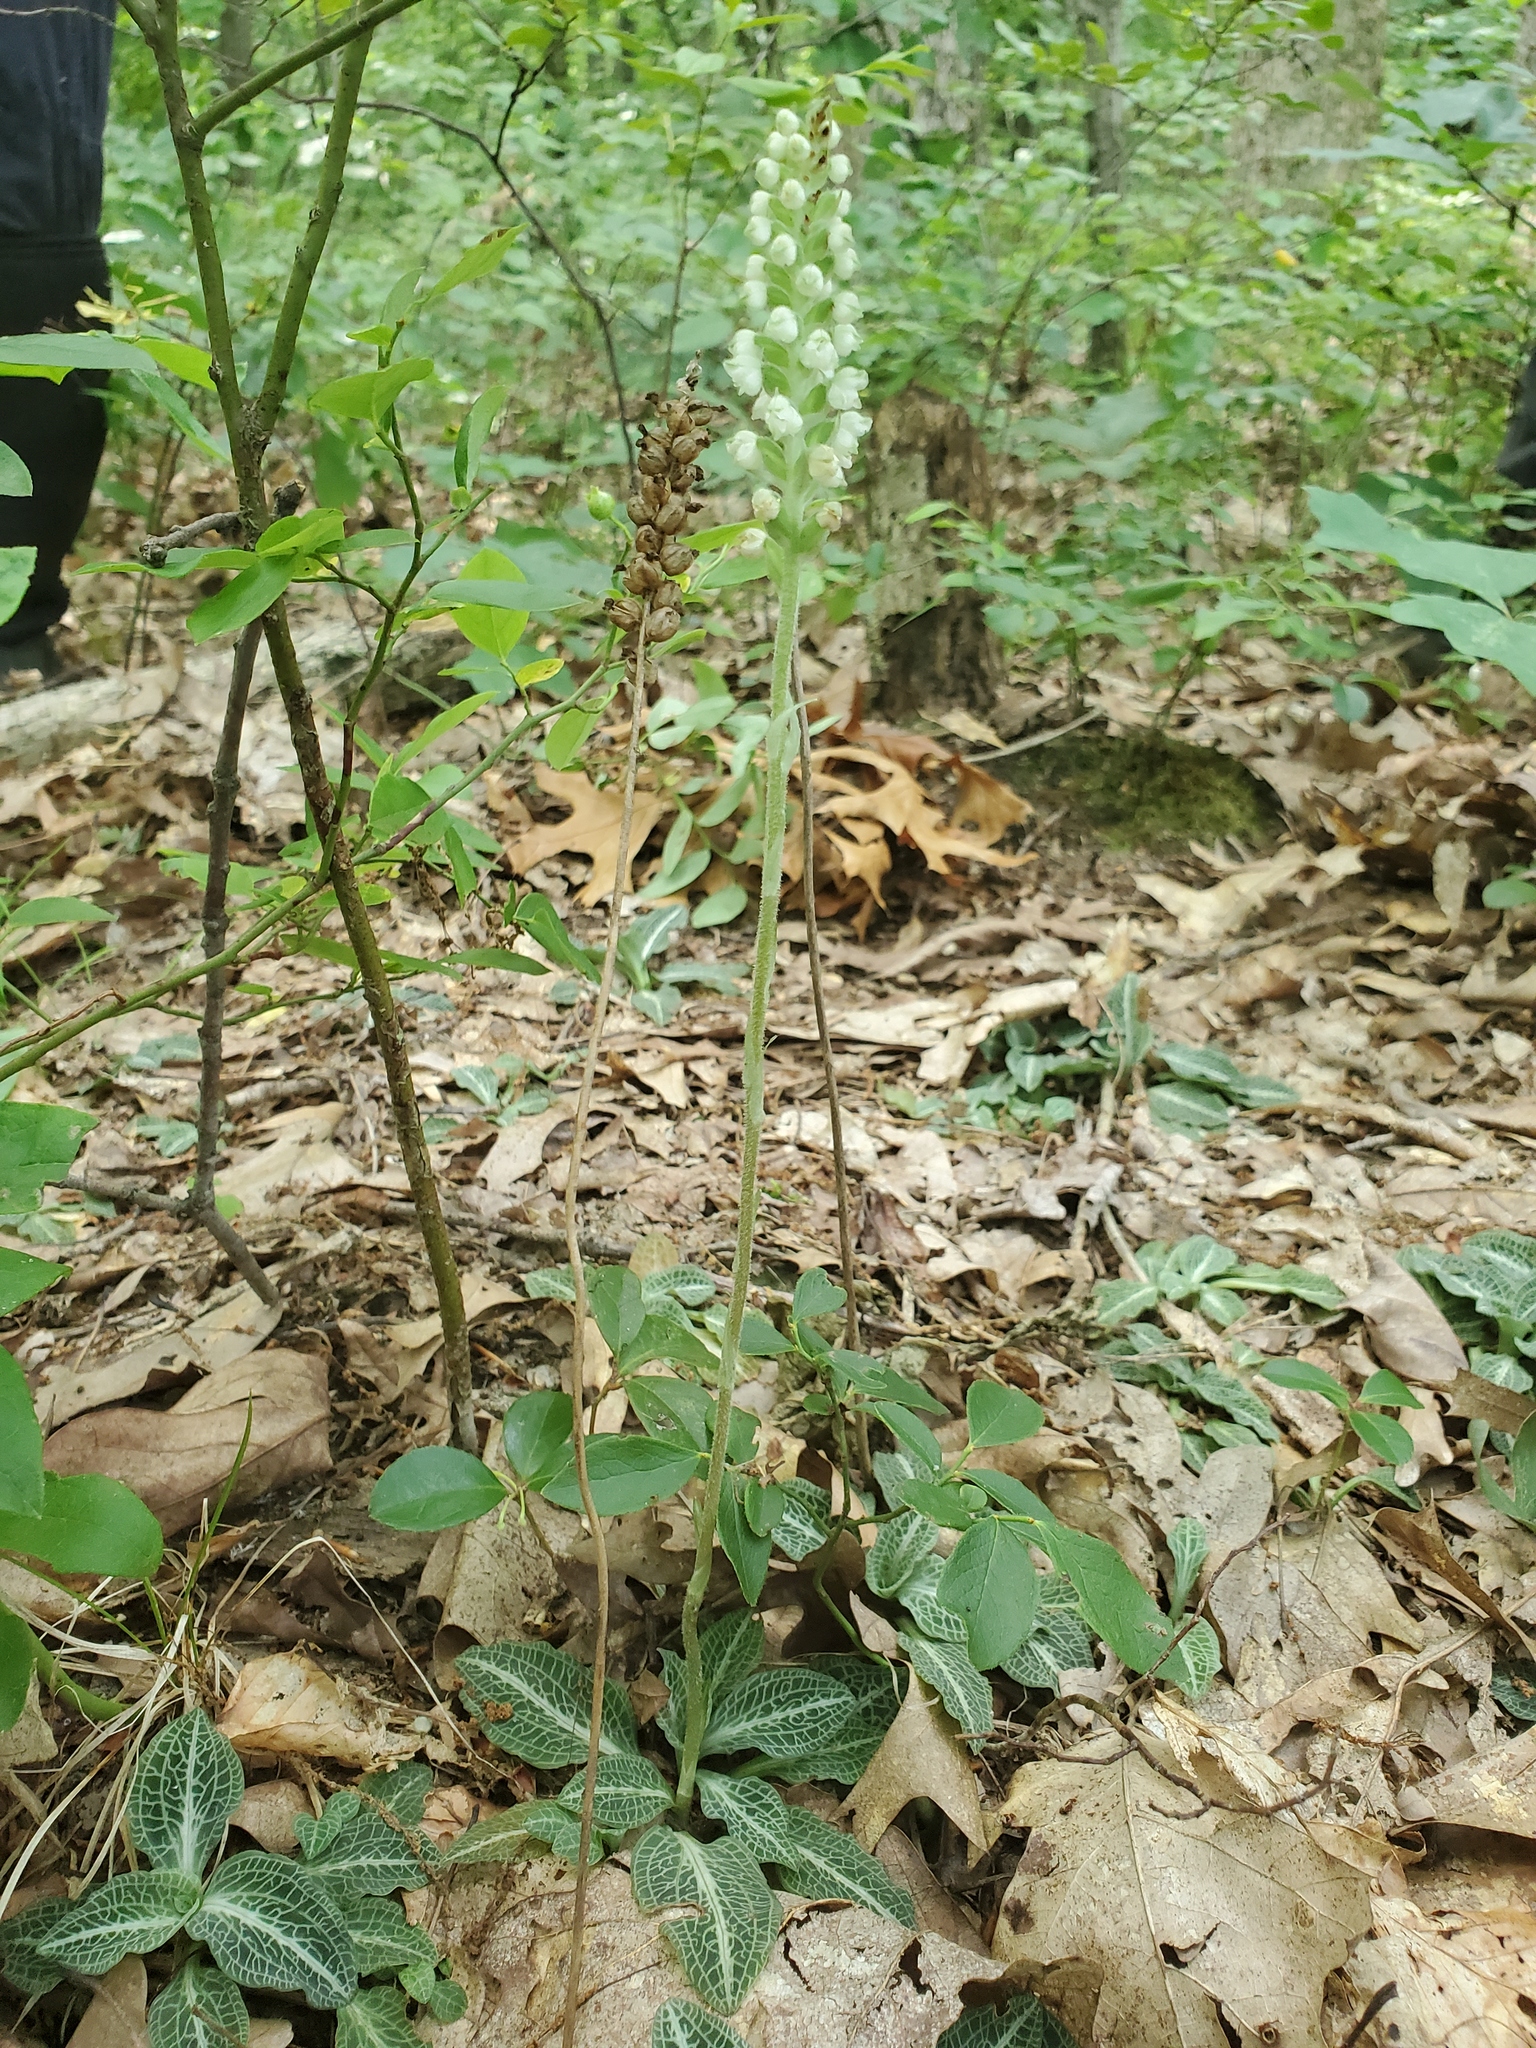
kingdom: Plantae
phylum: Tracheophyta
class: Liliopsida
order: Asparagales
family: Orchidaceae
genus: Goodyera
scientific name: Goodyera pubescens
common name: Downy rattlesnake-plantain
